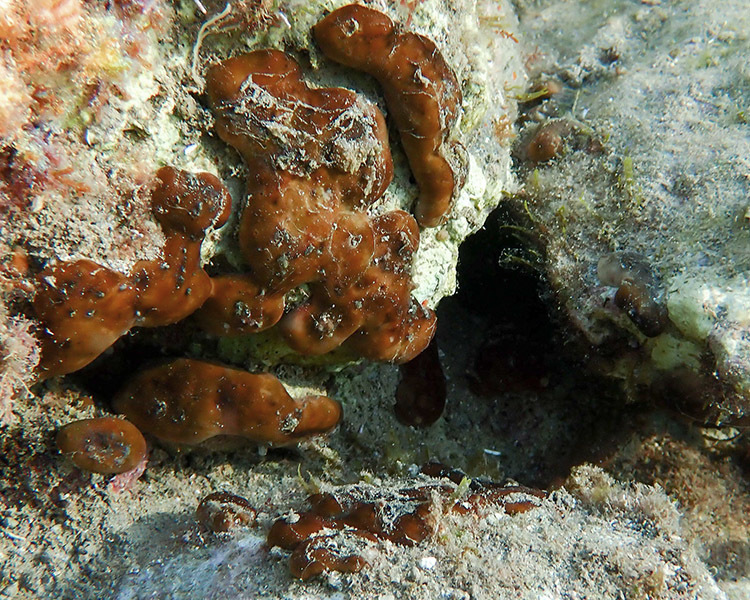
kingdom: Animalia
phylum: Porifera
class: Demospongiae
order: Chondrillida
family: Chondrillidae
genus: Chondrilla
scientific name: Chondrilla nucula
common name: Chicken liver sponge
